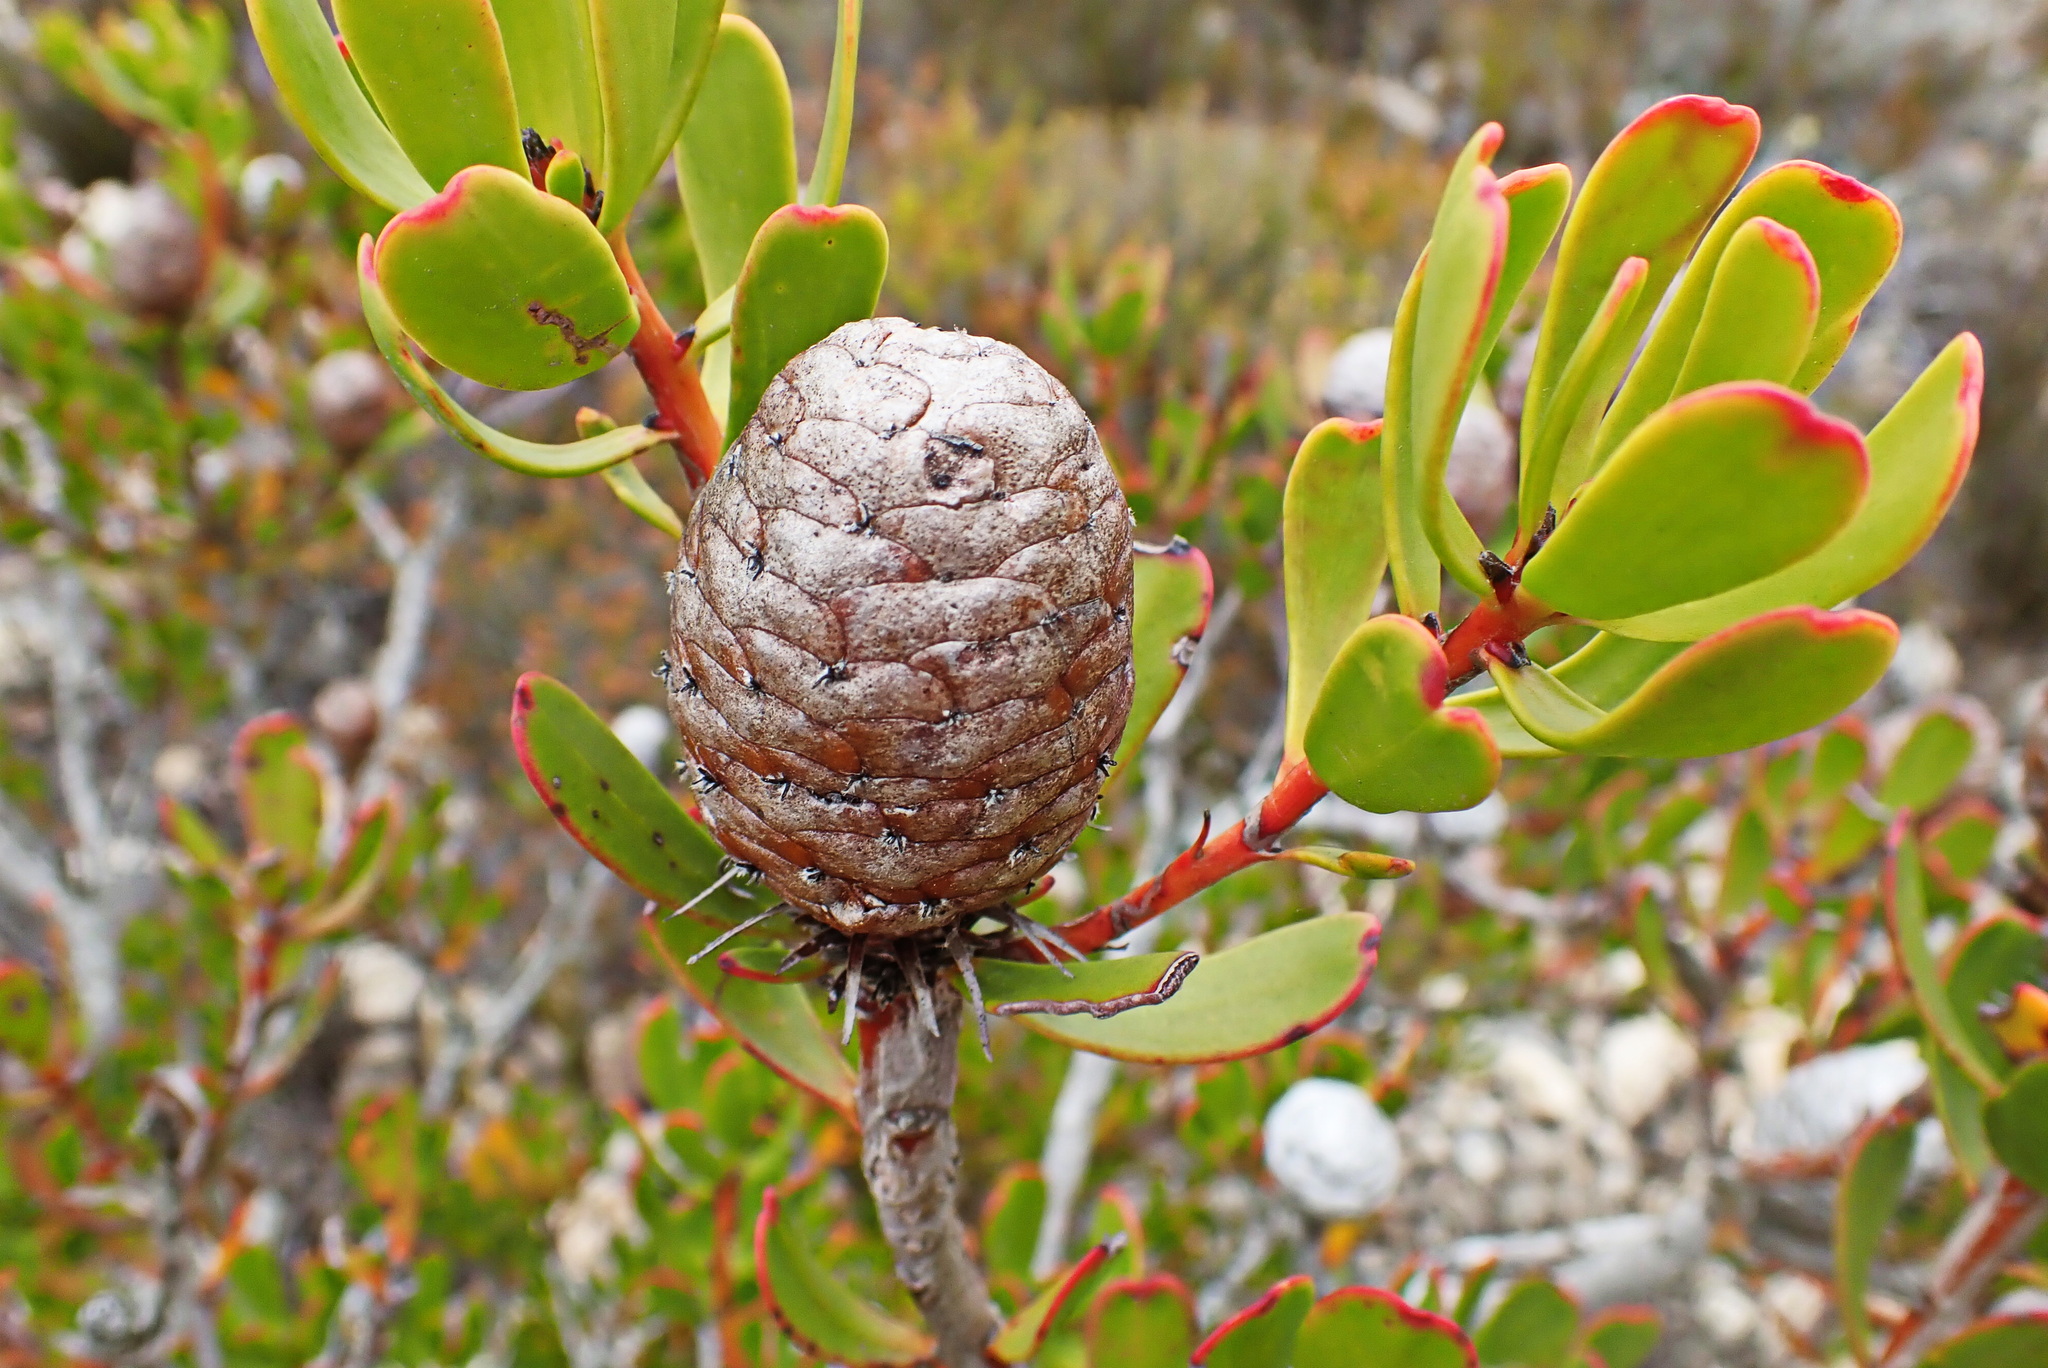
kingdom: Plantae
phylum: Tracheophyta
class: Magnoliopsida
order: Proteales
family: Proteaceae
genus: Leucadendron
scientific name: Leucadendron muirii
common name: Silver-ball conebush
